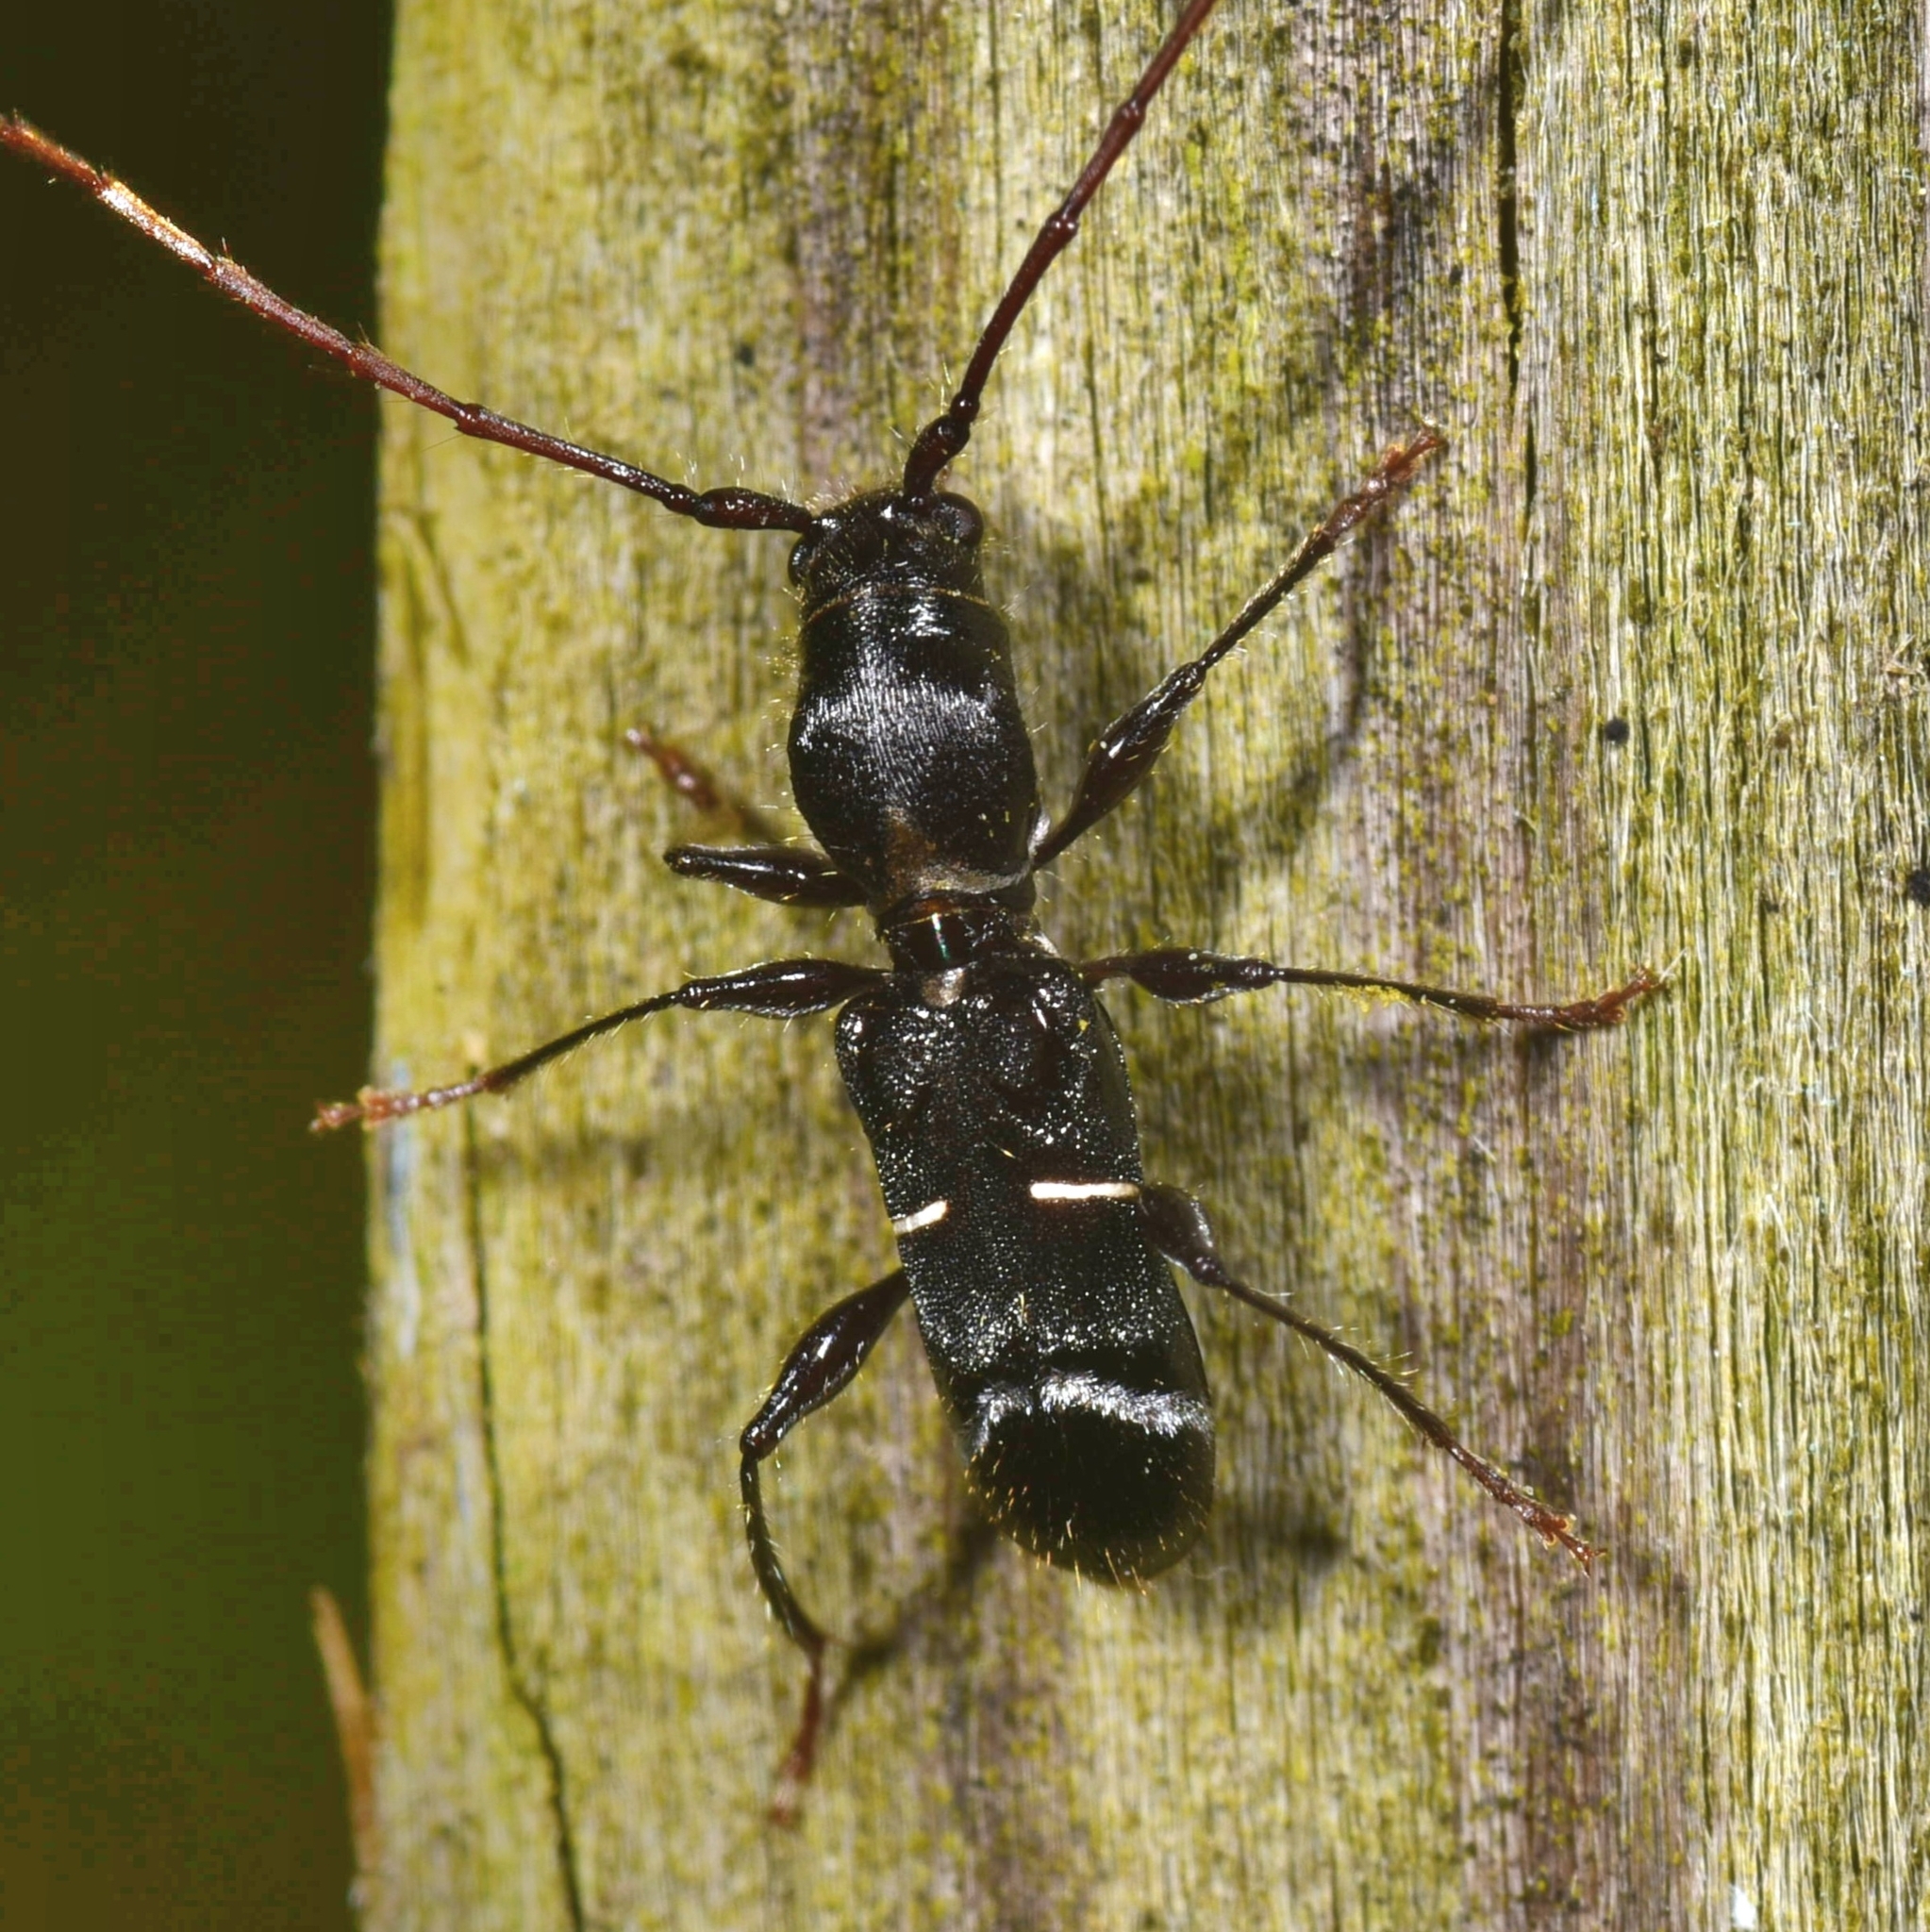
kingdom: Animalia
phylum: Arthropoda
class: Insecta
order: Coleoptera
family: Cerambycidae
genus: Euderces
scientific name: Euderces pini
